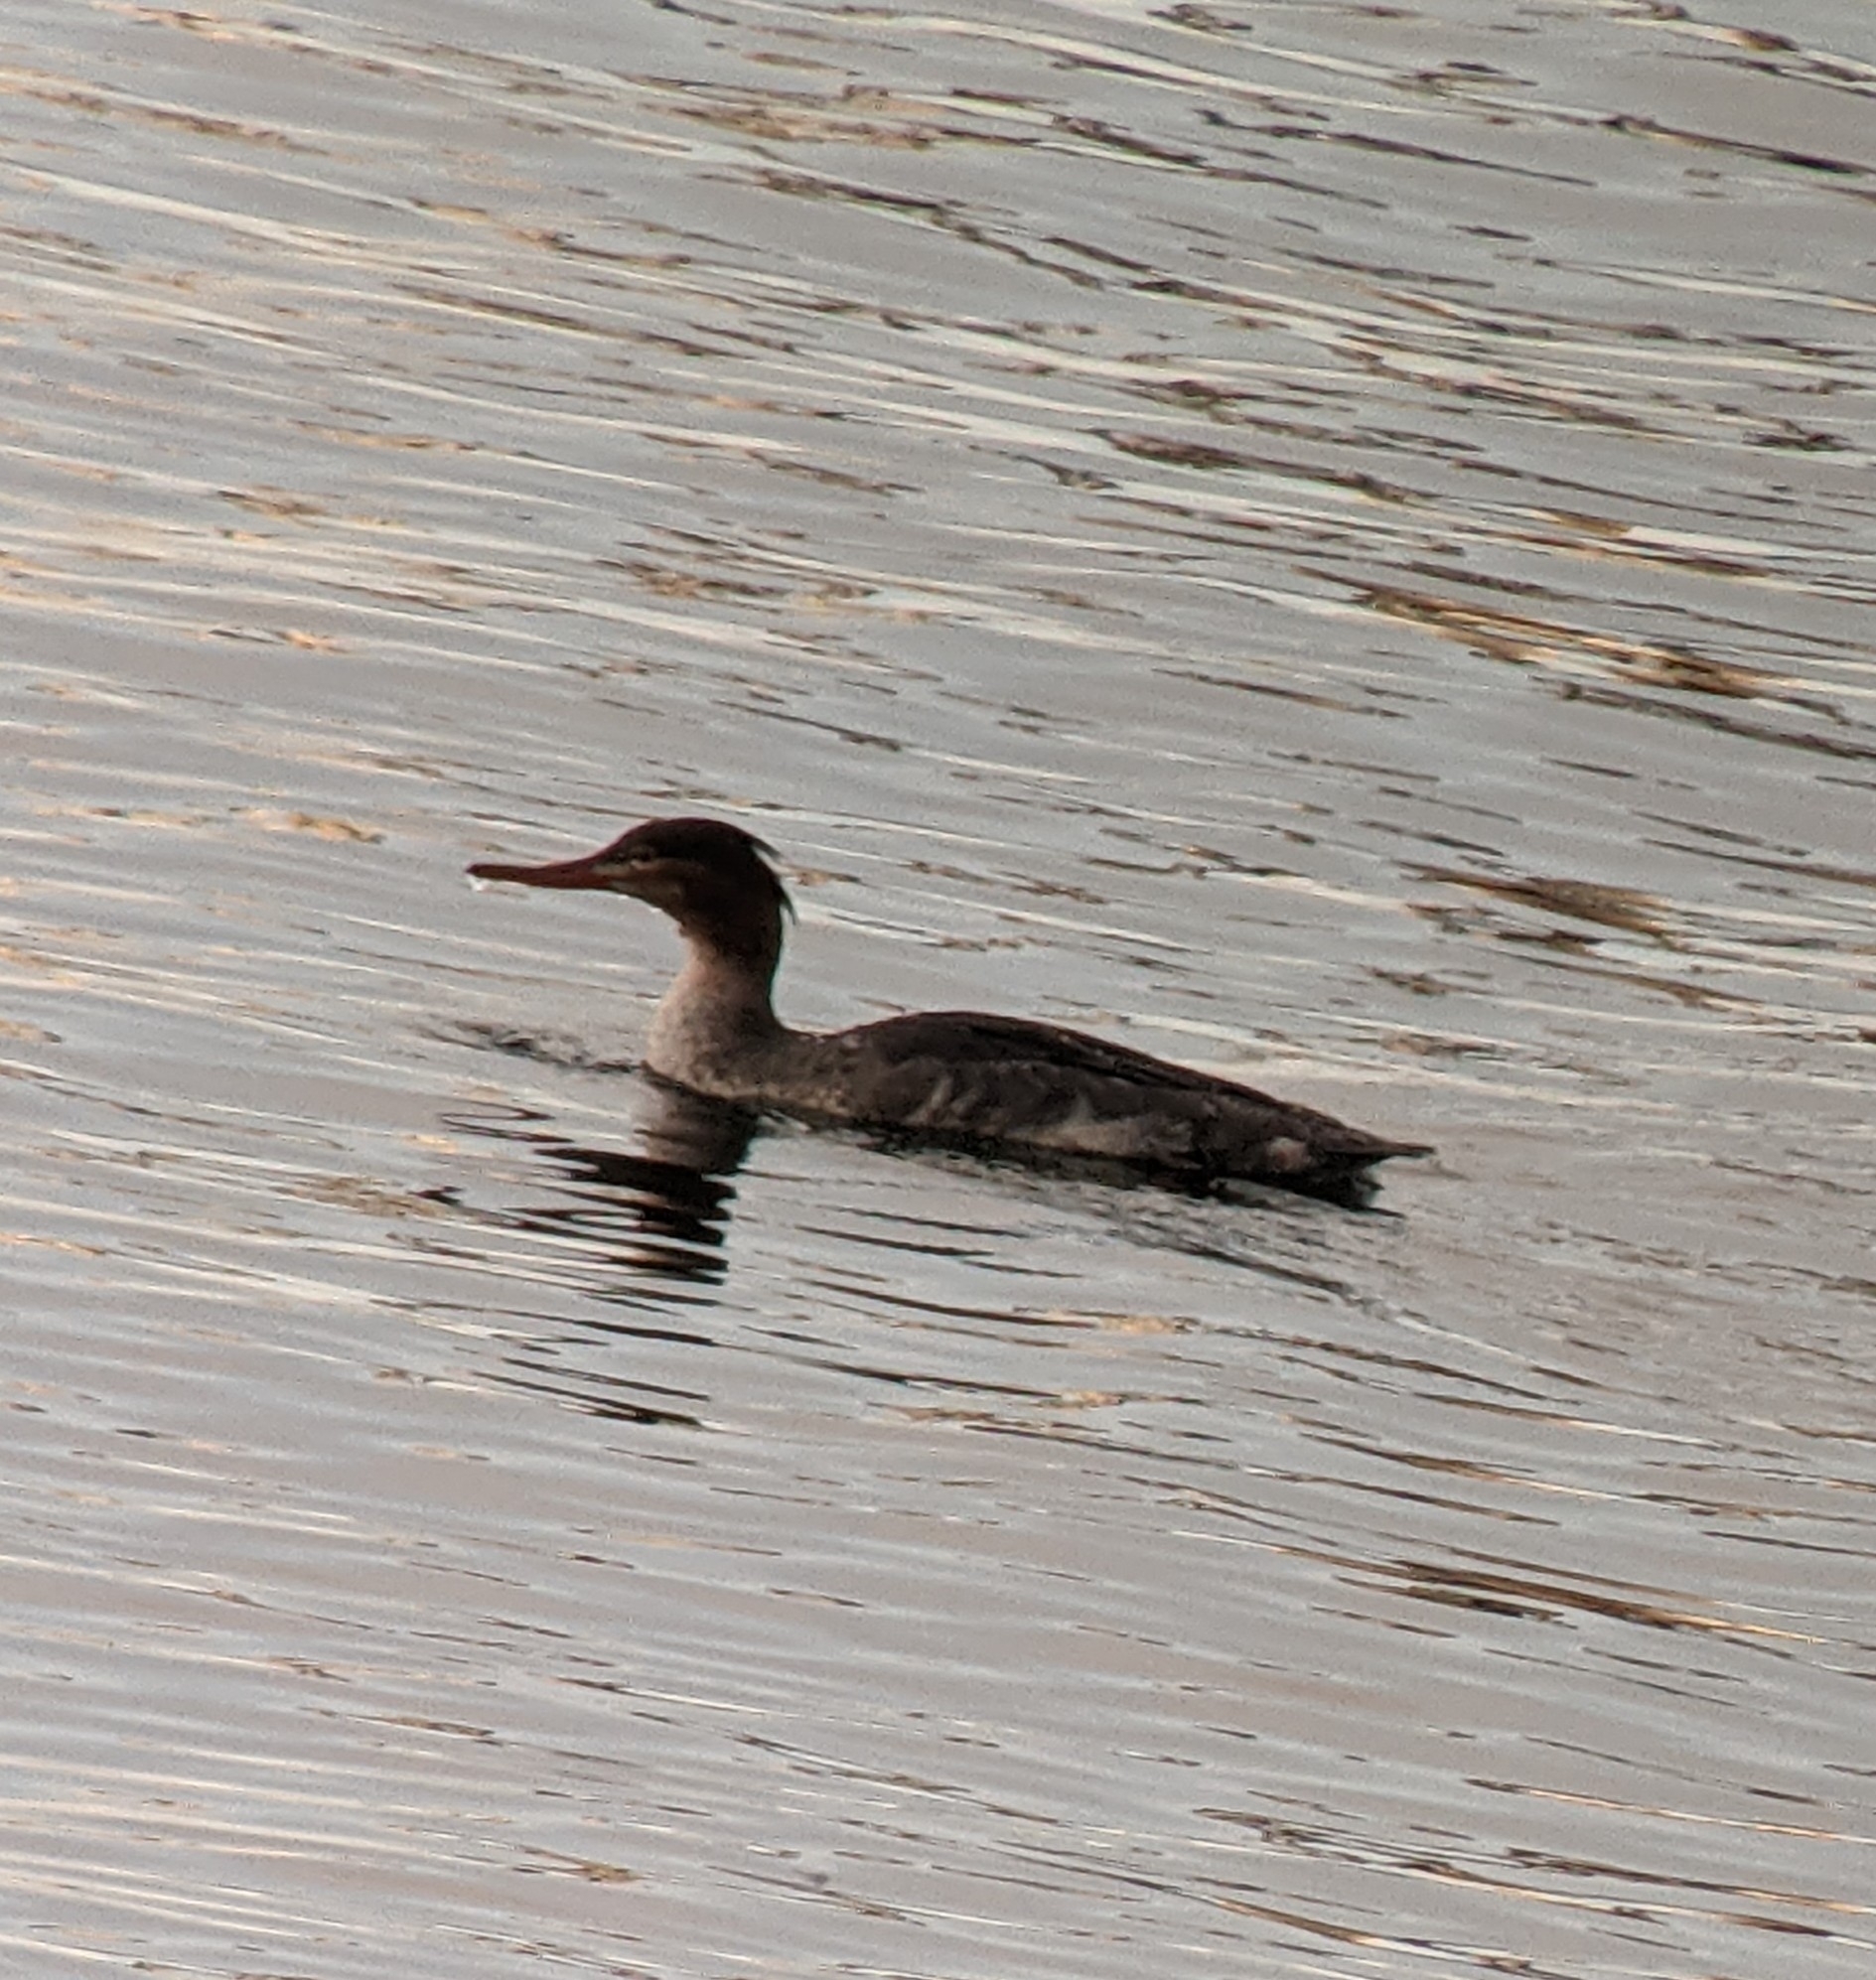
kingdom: Animalia
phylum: Chordata
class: Aves
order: Anseriformes
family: Anatidae
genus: Mergus
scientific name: Mergus serrator
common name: Red-breasted merganser
